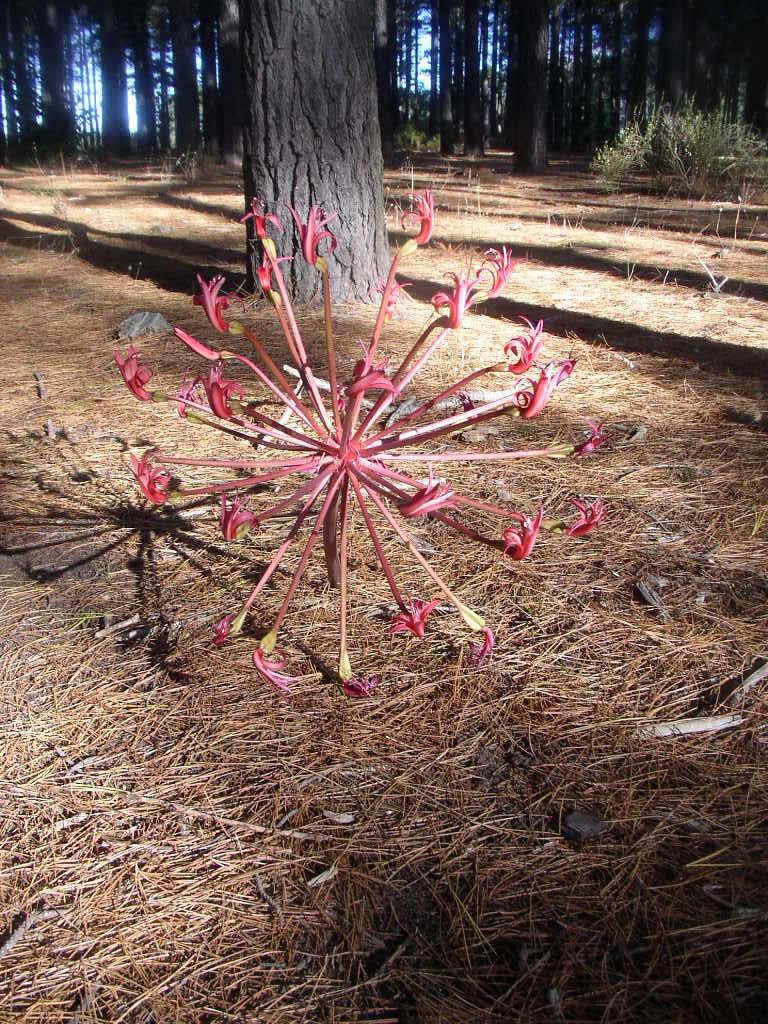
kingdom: Plantae
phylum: Tracheophyta
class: Liliopsida
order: Asparagales
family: Amaryllidaceae
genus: Brunsvigia
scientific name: Brunsvigia orientalis
